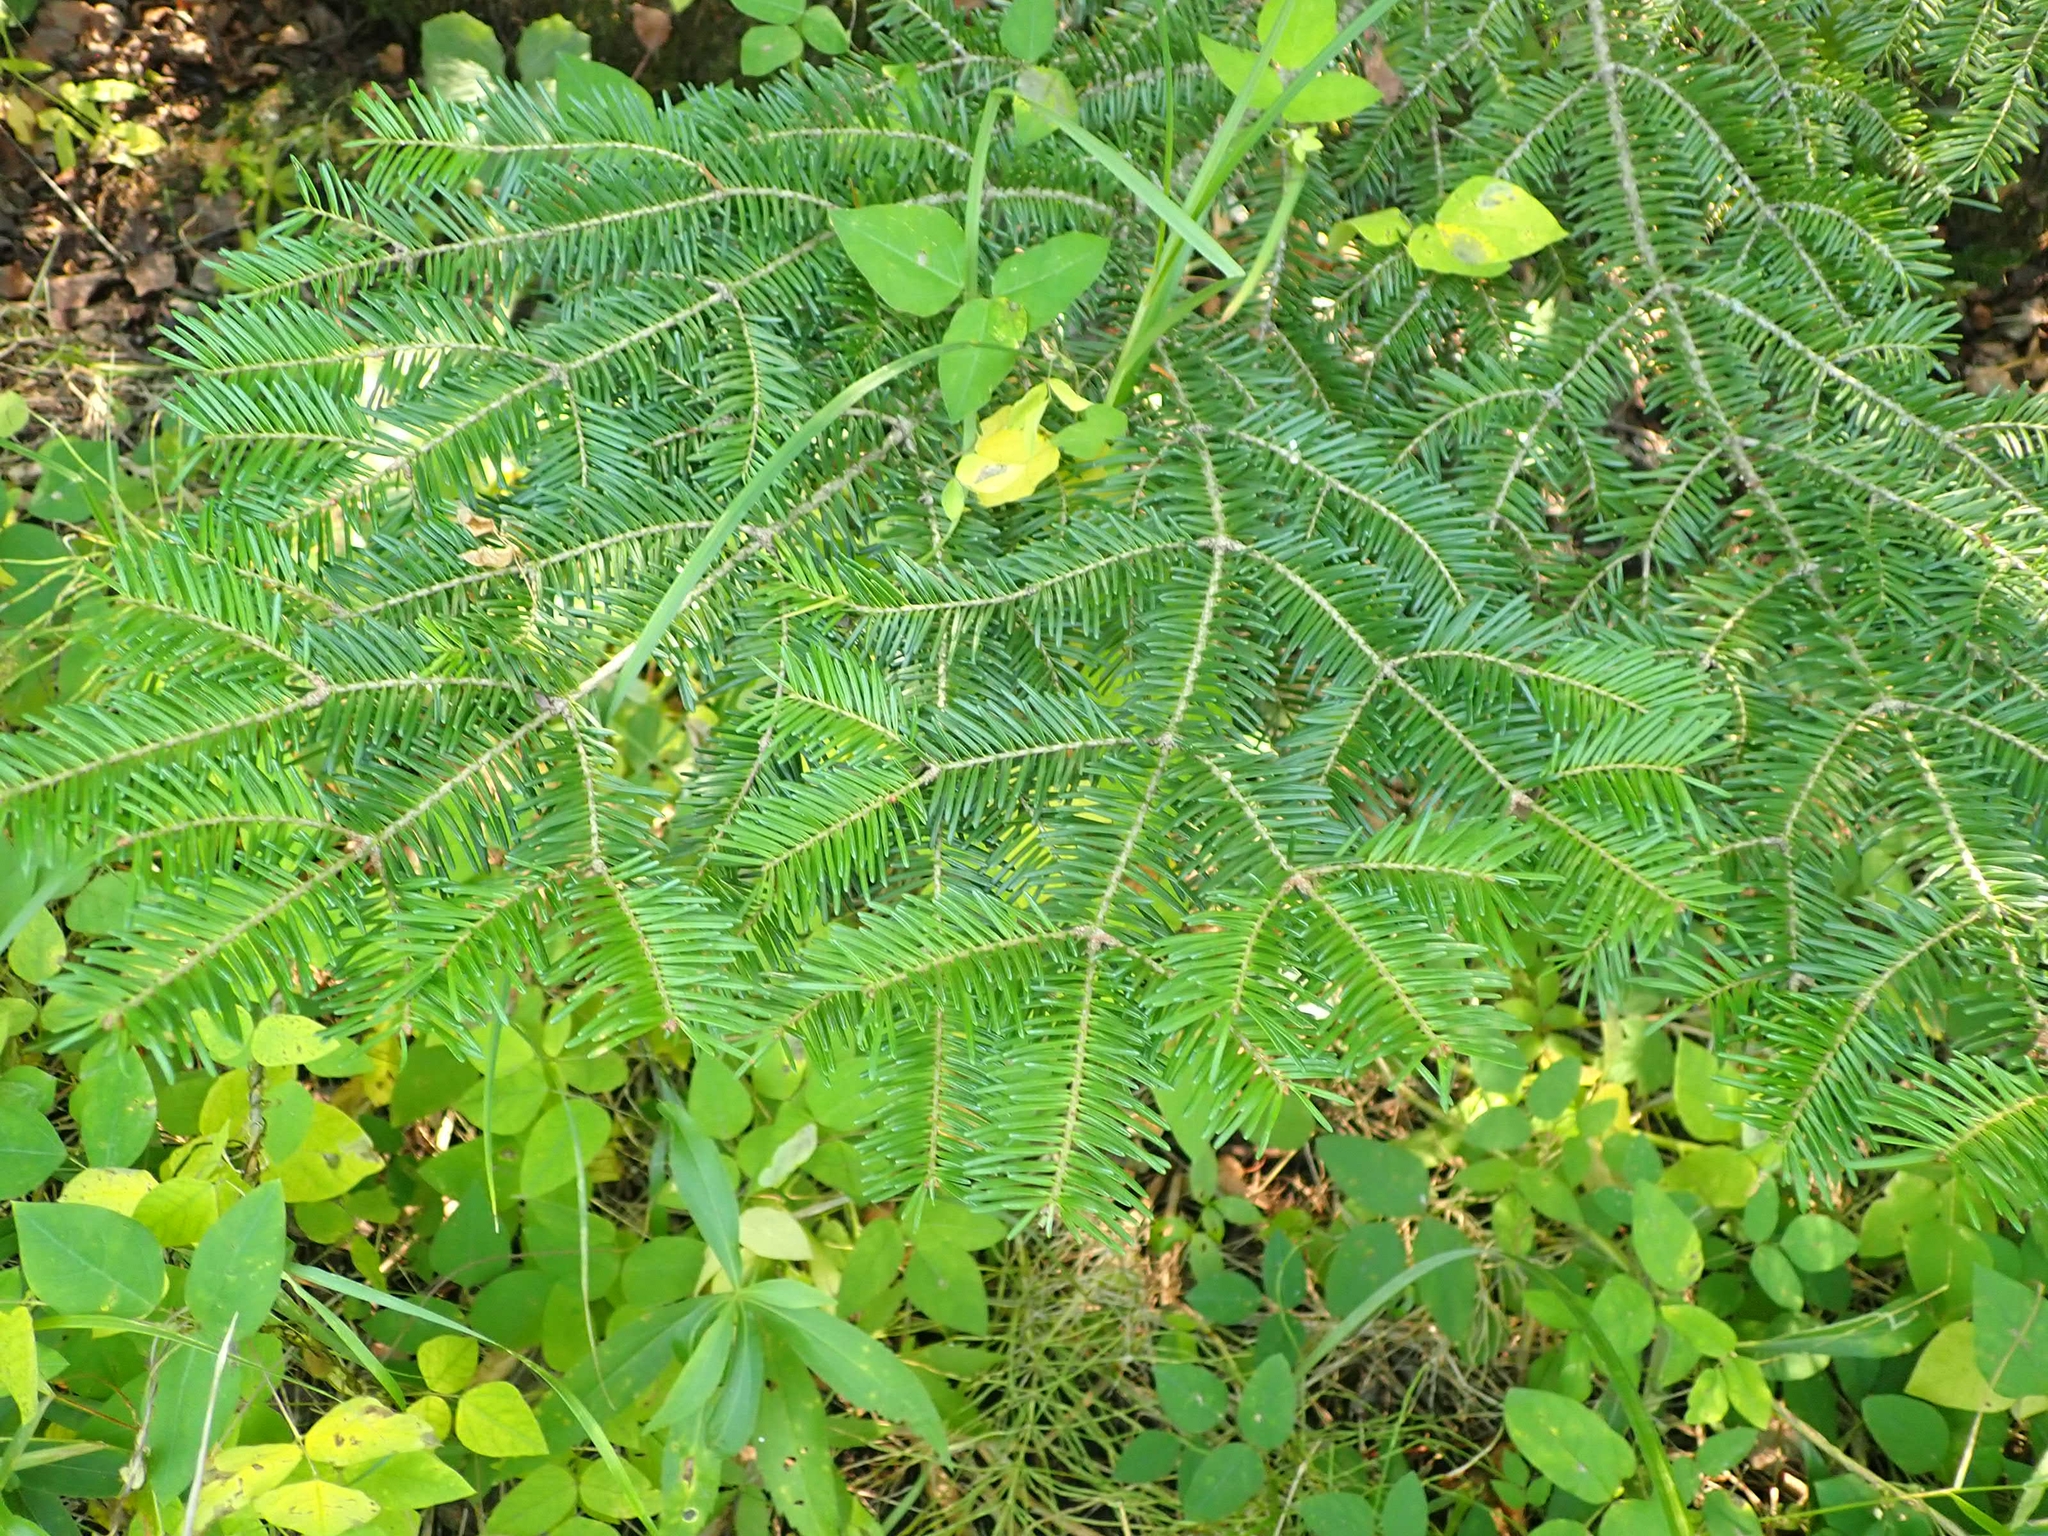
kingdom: Plantae
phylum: Tracheophyta
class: Pinopsida
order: Pinales
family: Pinaceae
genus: Abies
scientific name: Abies balsamea
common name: Balsam fir
